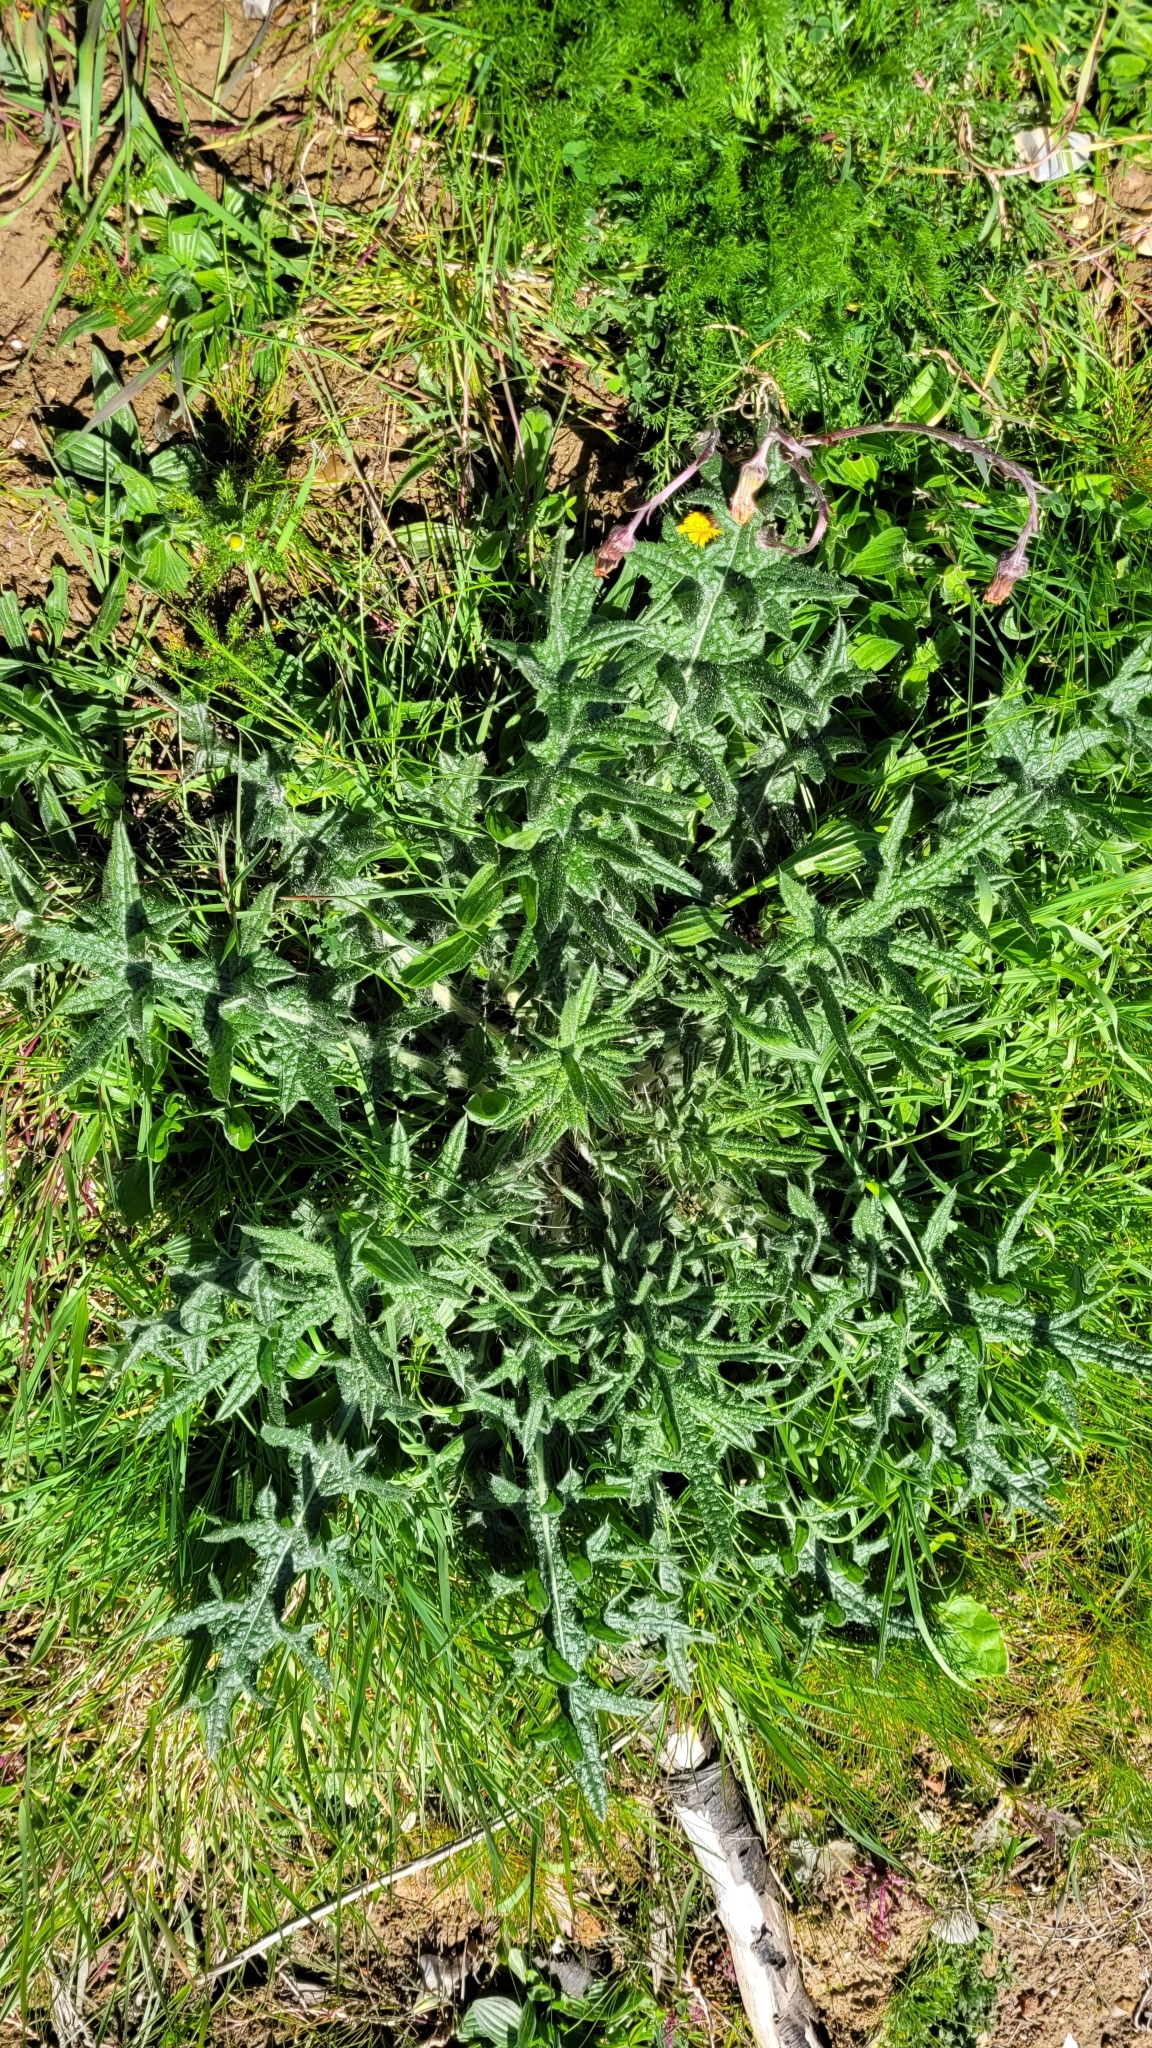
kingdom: Plantae
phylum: Tracheophyta
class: Magnoliopsida
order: Asterales
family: Asteraceae
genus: Cirsium
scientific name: Cirsium vulgare
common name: Bull thistle
